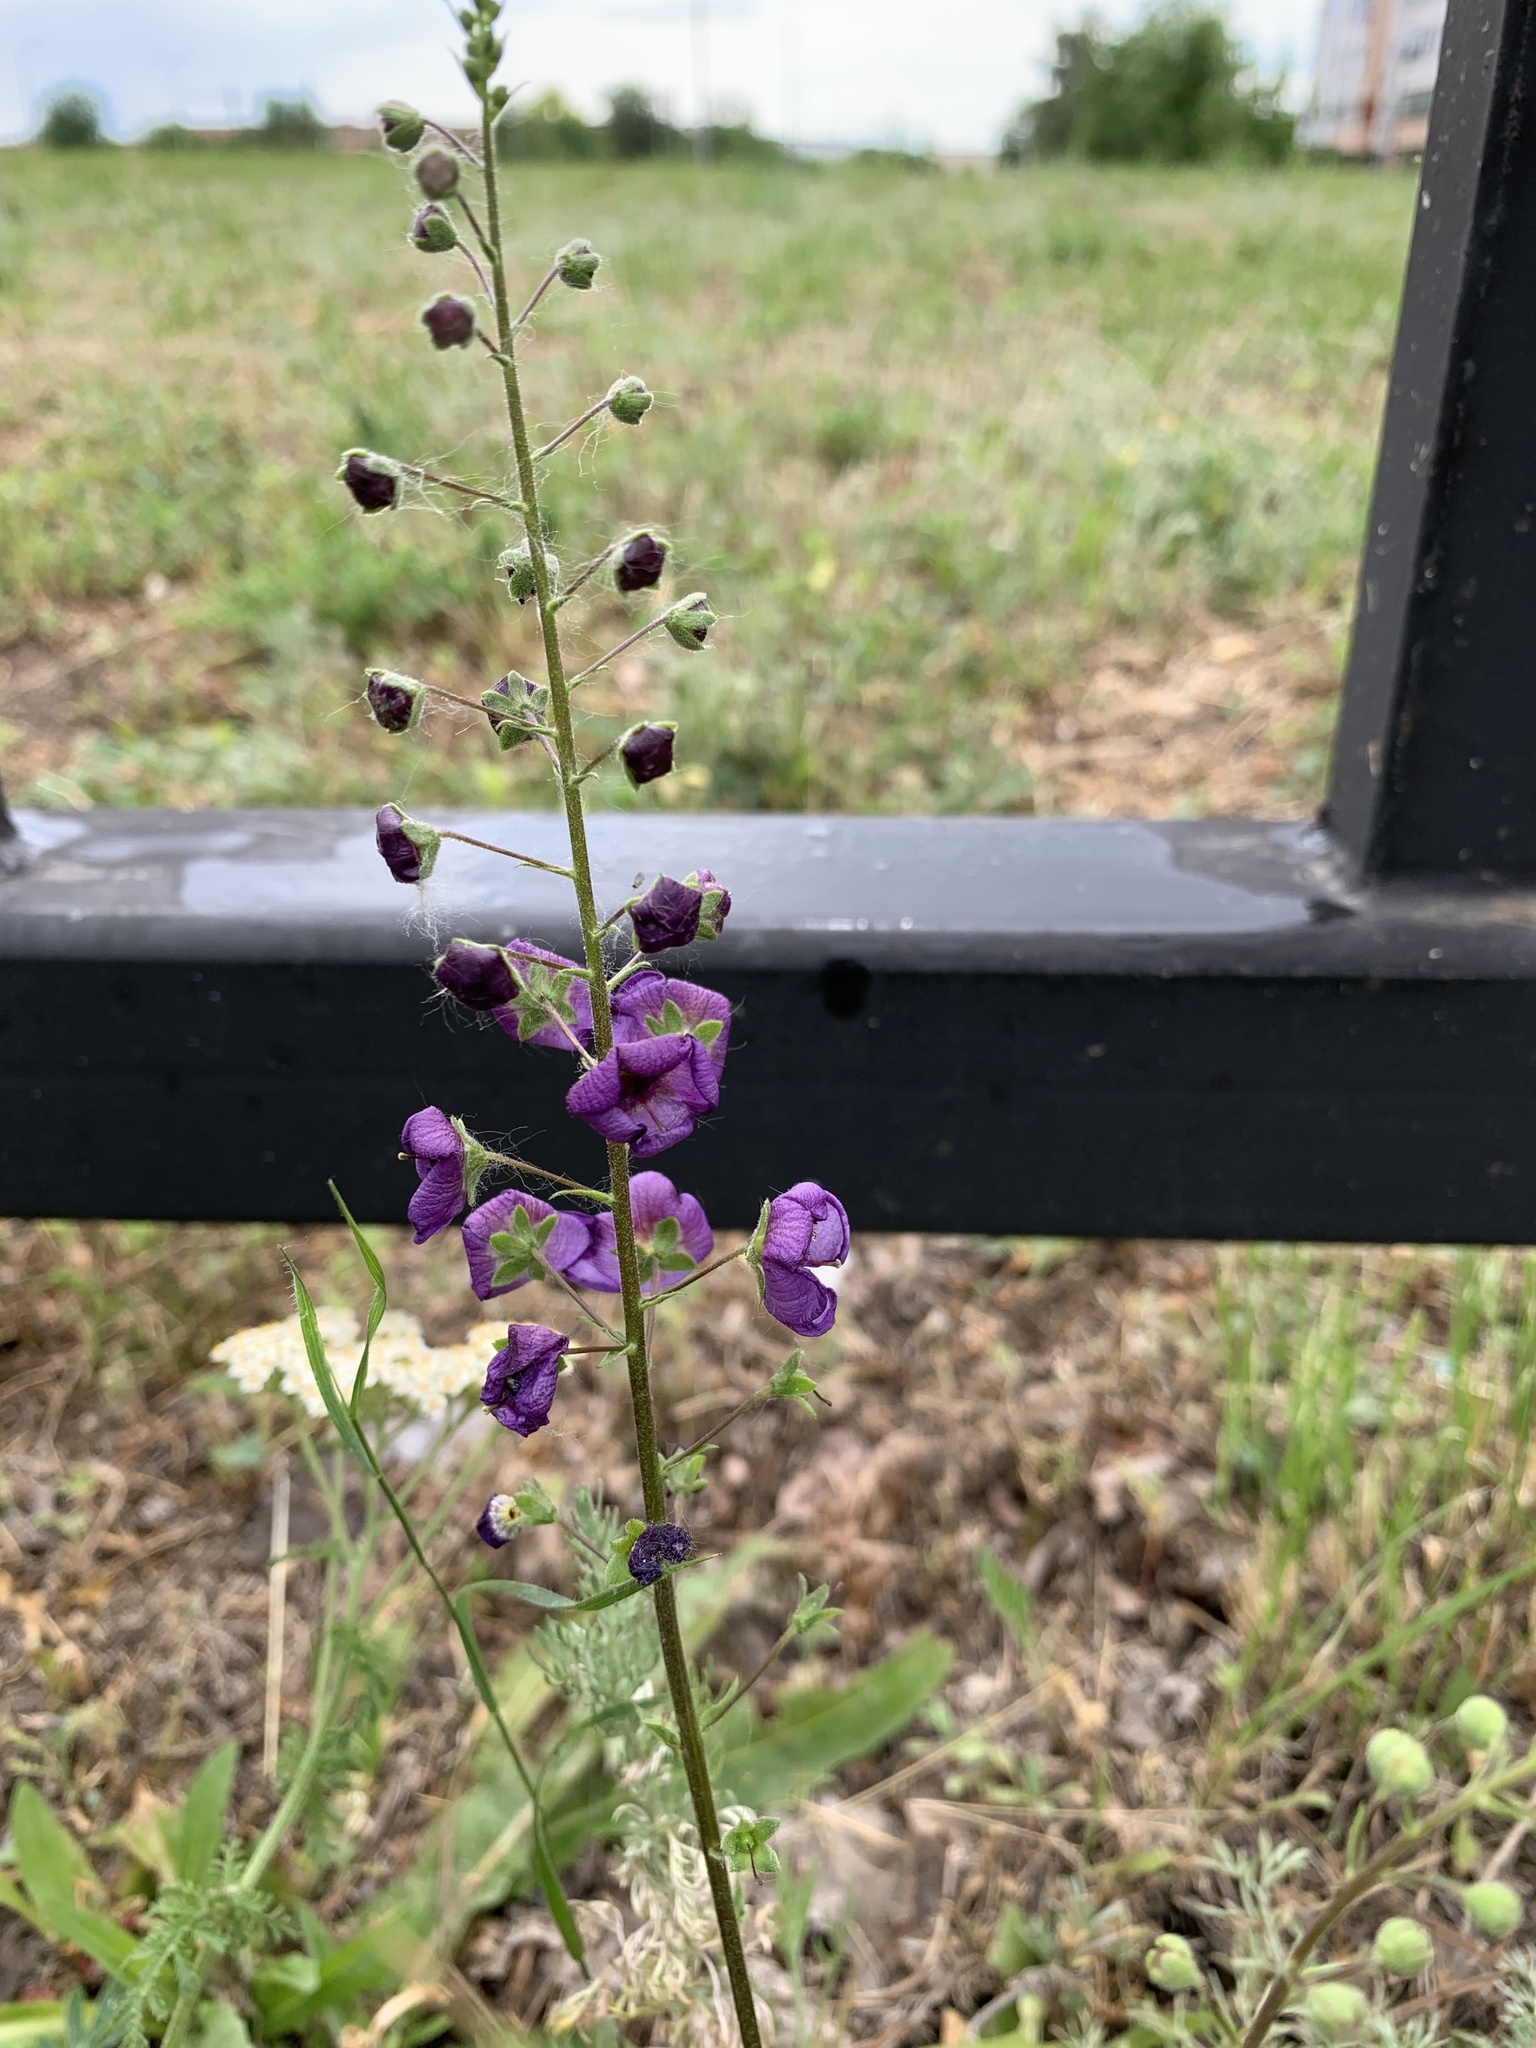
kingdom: Plantae
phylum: Tracheophyta
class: Magnoliopsida
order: Lamiales
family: Scrophulariaceae
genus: Verbascum
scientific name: Verbascum phoeniceum
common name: Purple mullein
